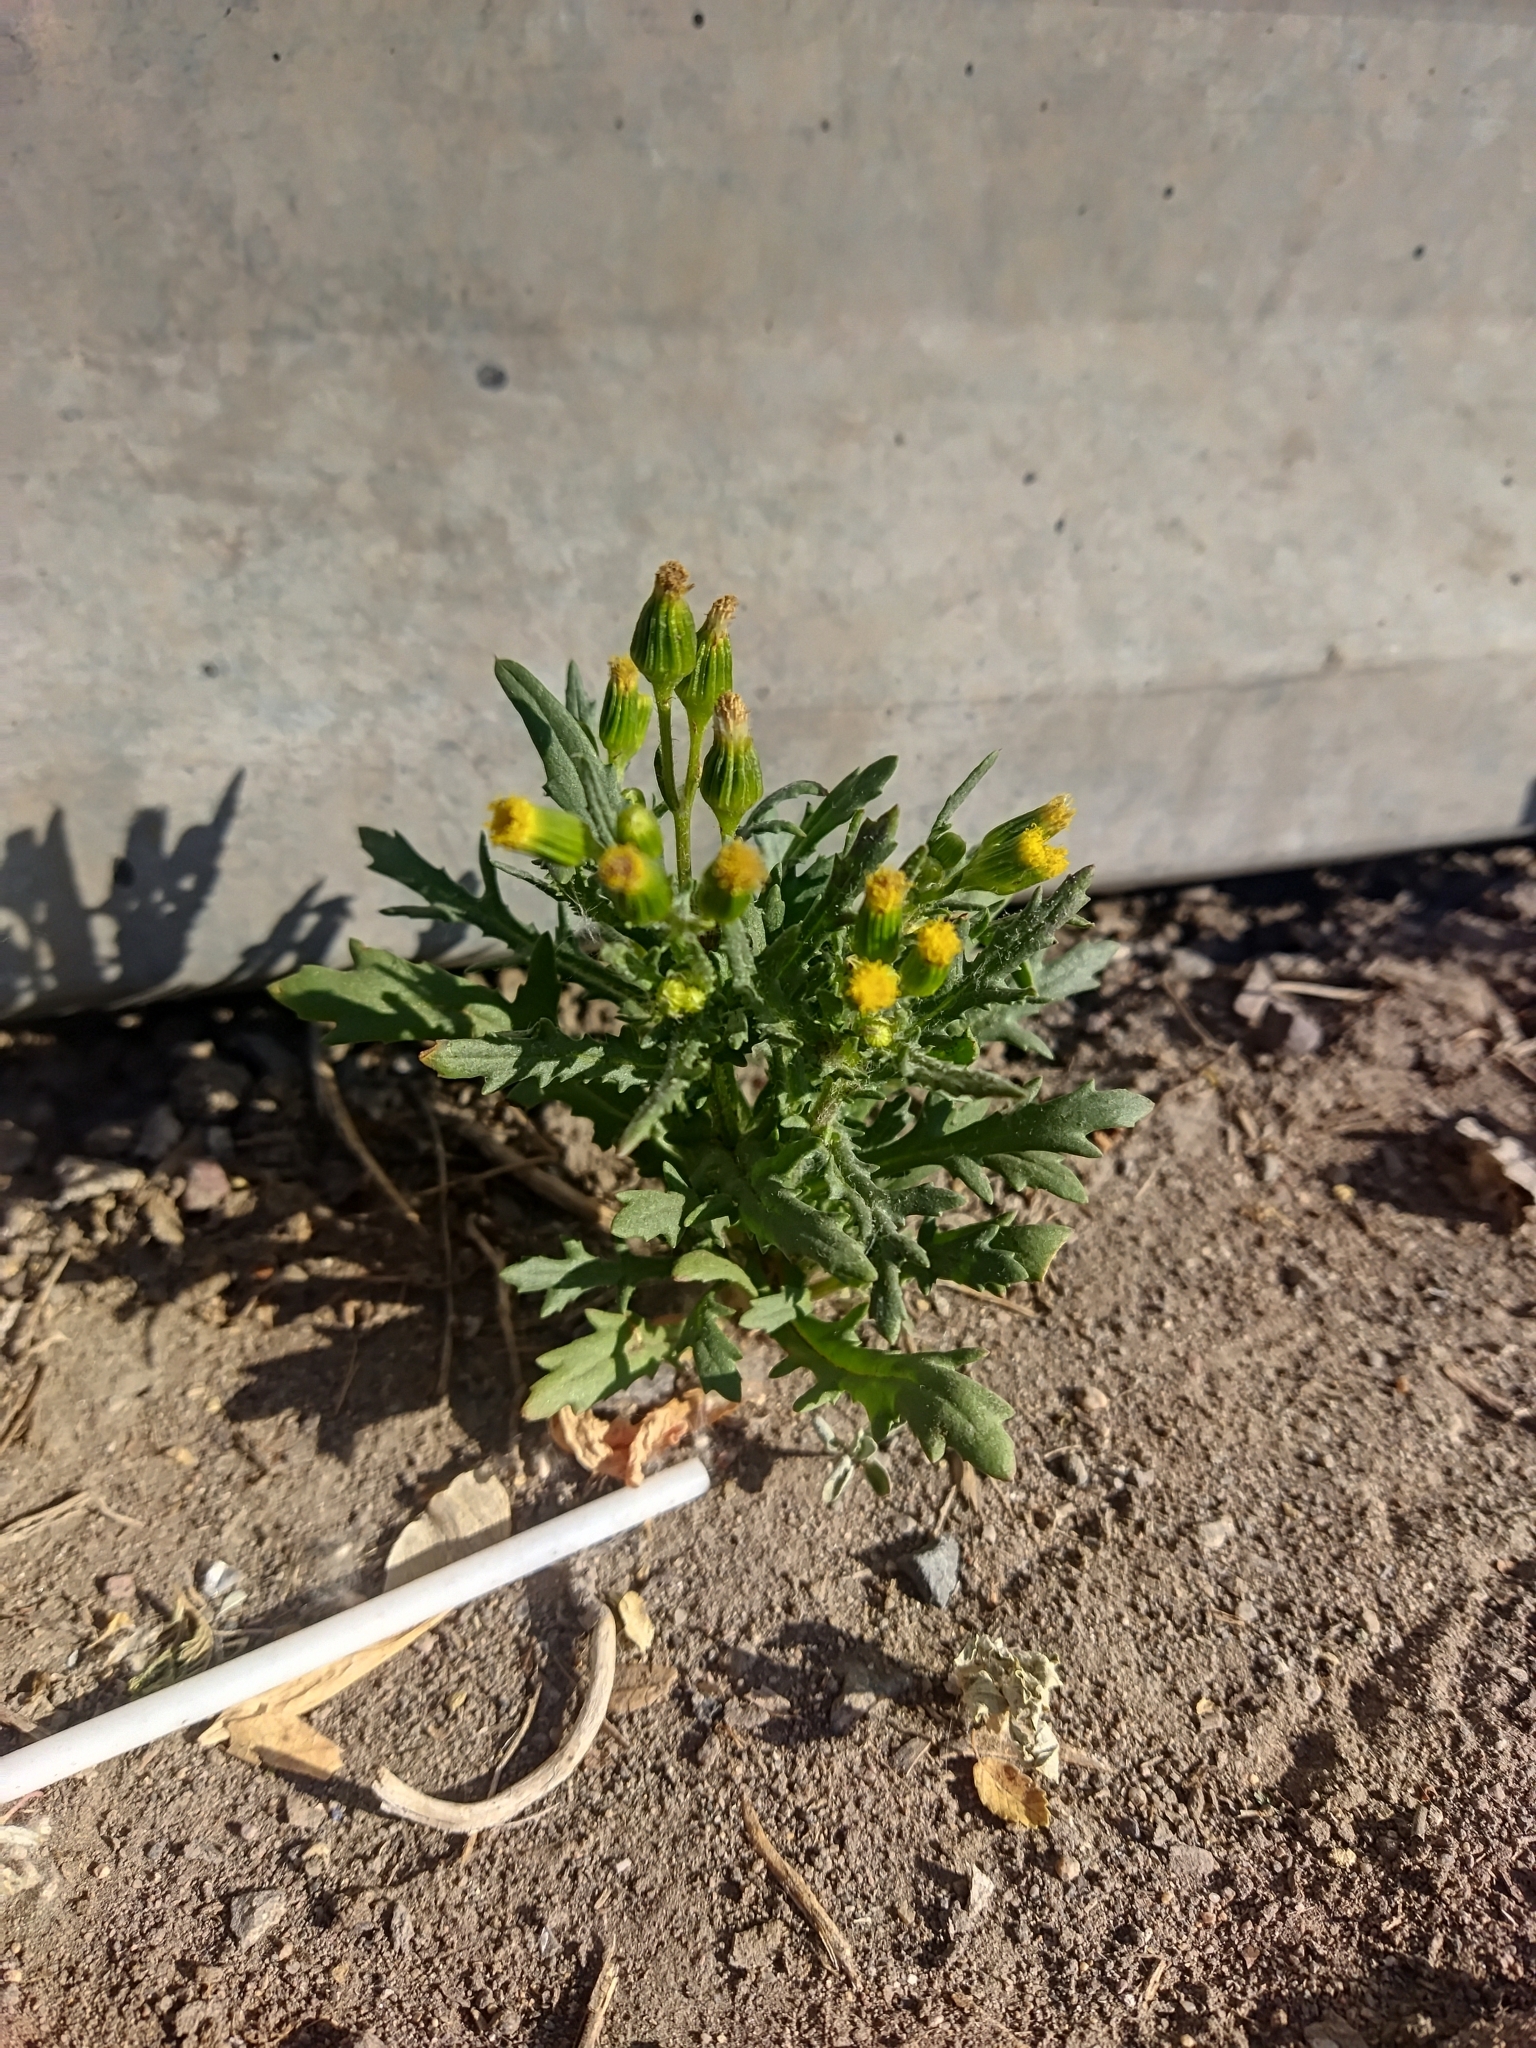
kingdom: Plantae
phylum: Tracheophyta
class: Magnoliopsida
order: Asterales
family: Asteraceae
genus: Senecio
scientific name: Senecio vulgaris
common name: Old-man-in-the-spring
